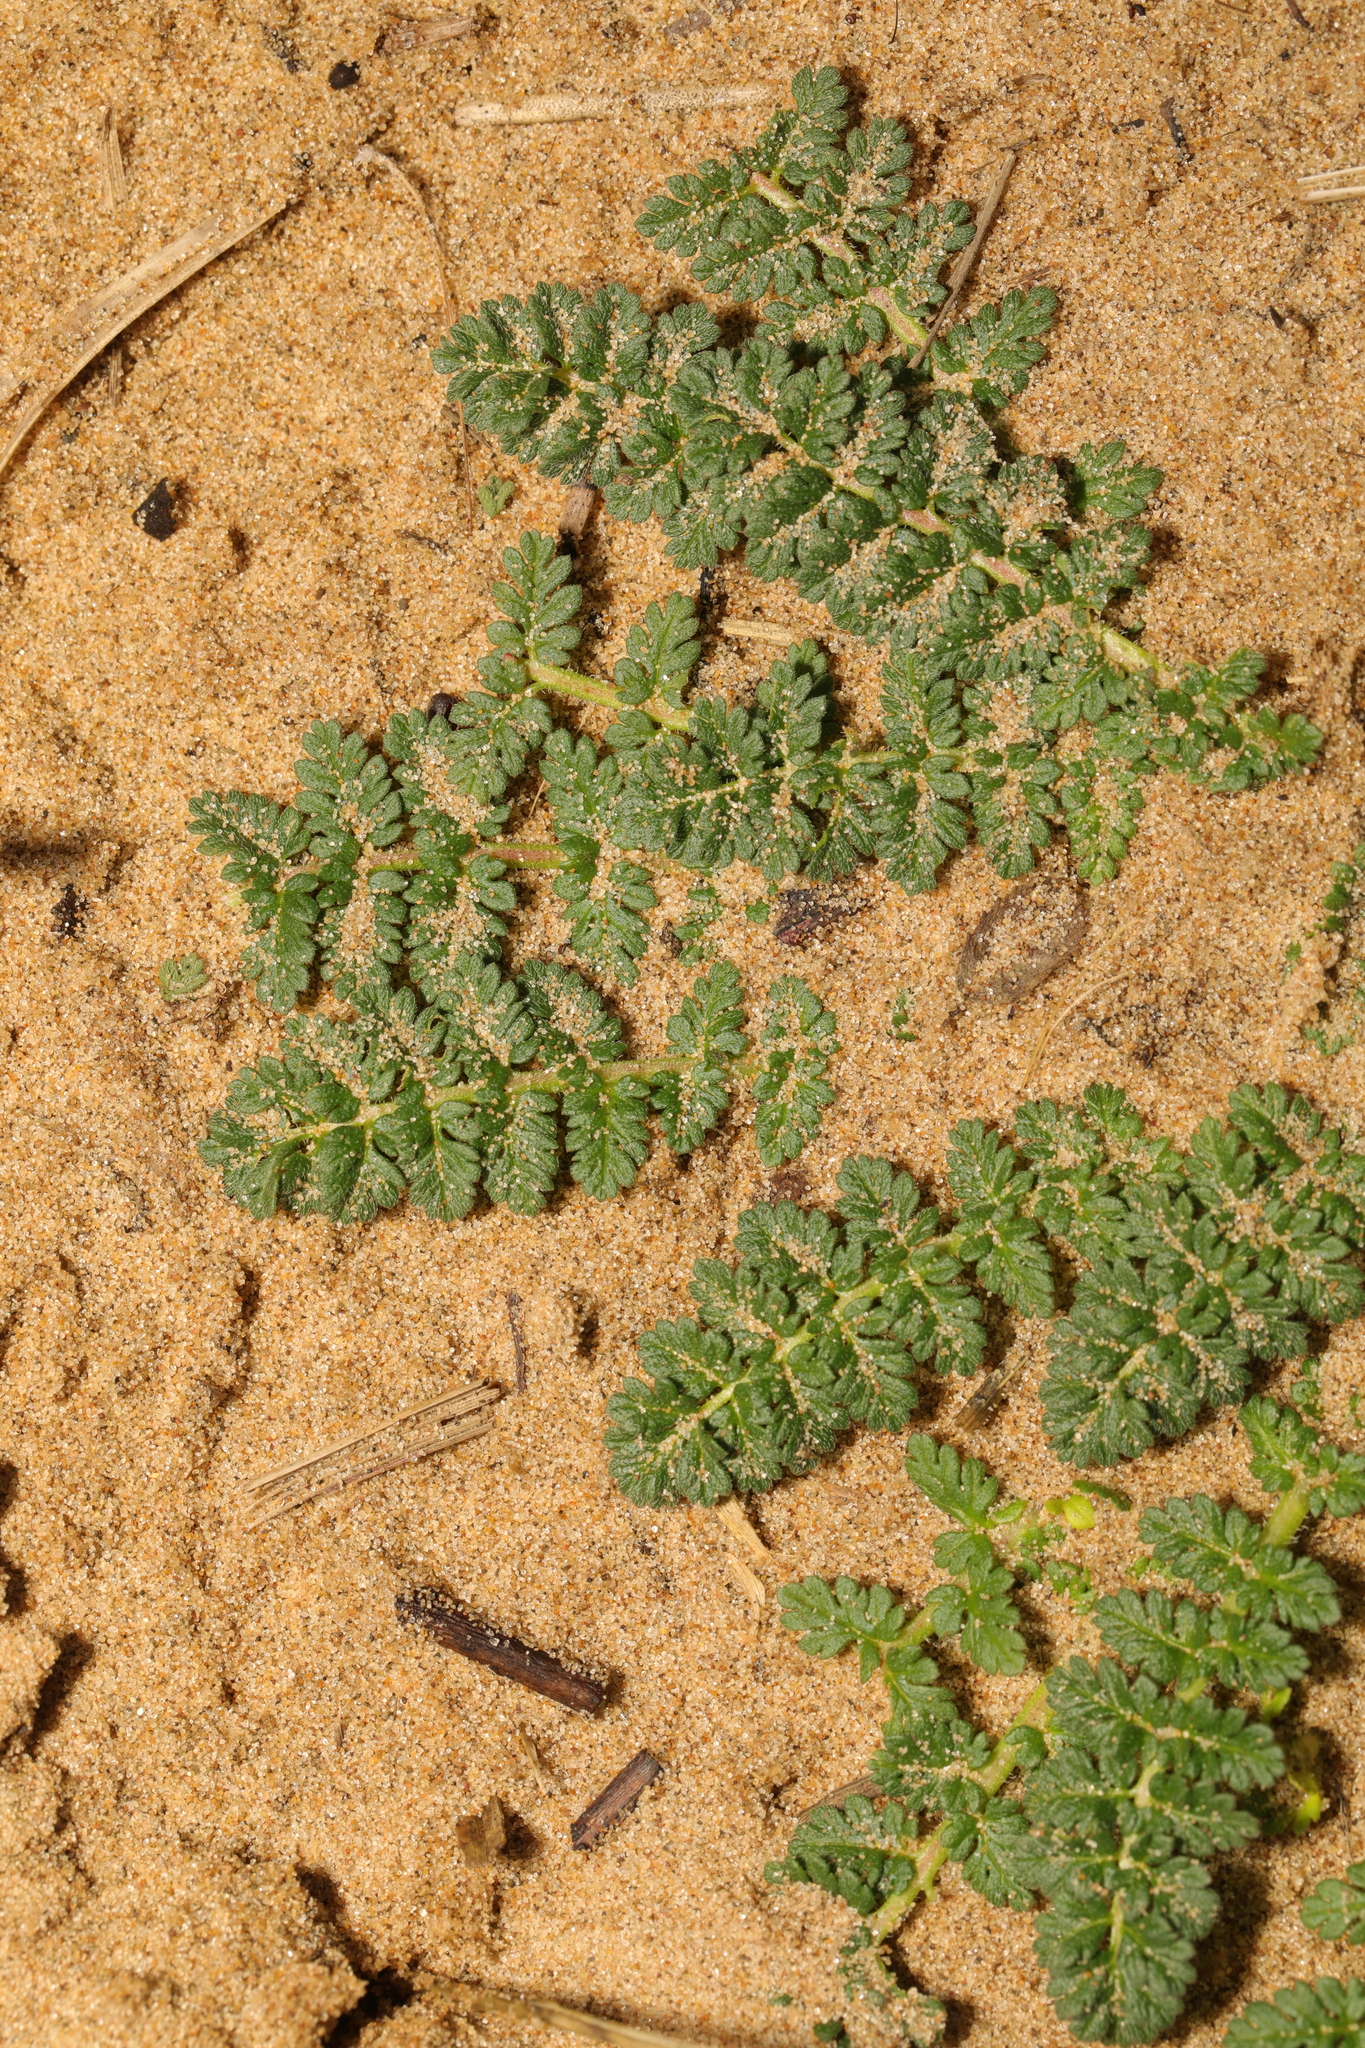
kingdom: Plantae
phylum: Tracheophyta
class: Magnoliopsida
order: Geraniales
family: Geraniaceae
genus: Erodium
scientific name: Erodium cicutarium
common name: Common stork's-bill
